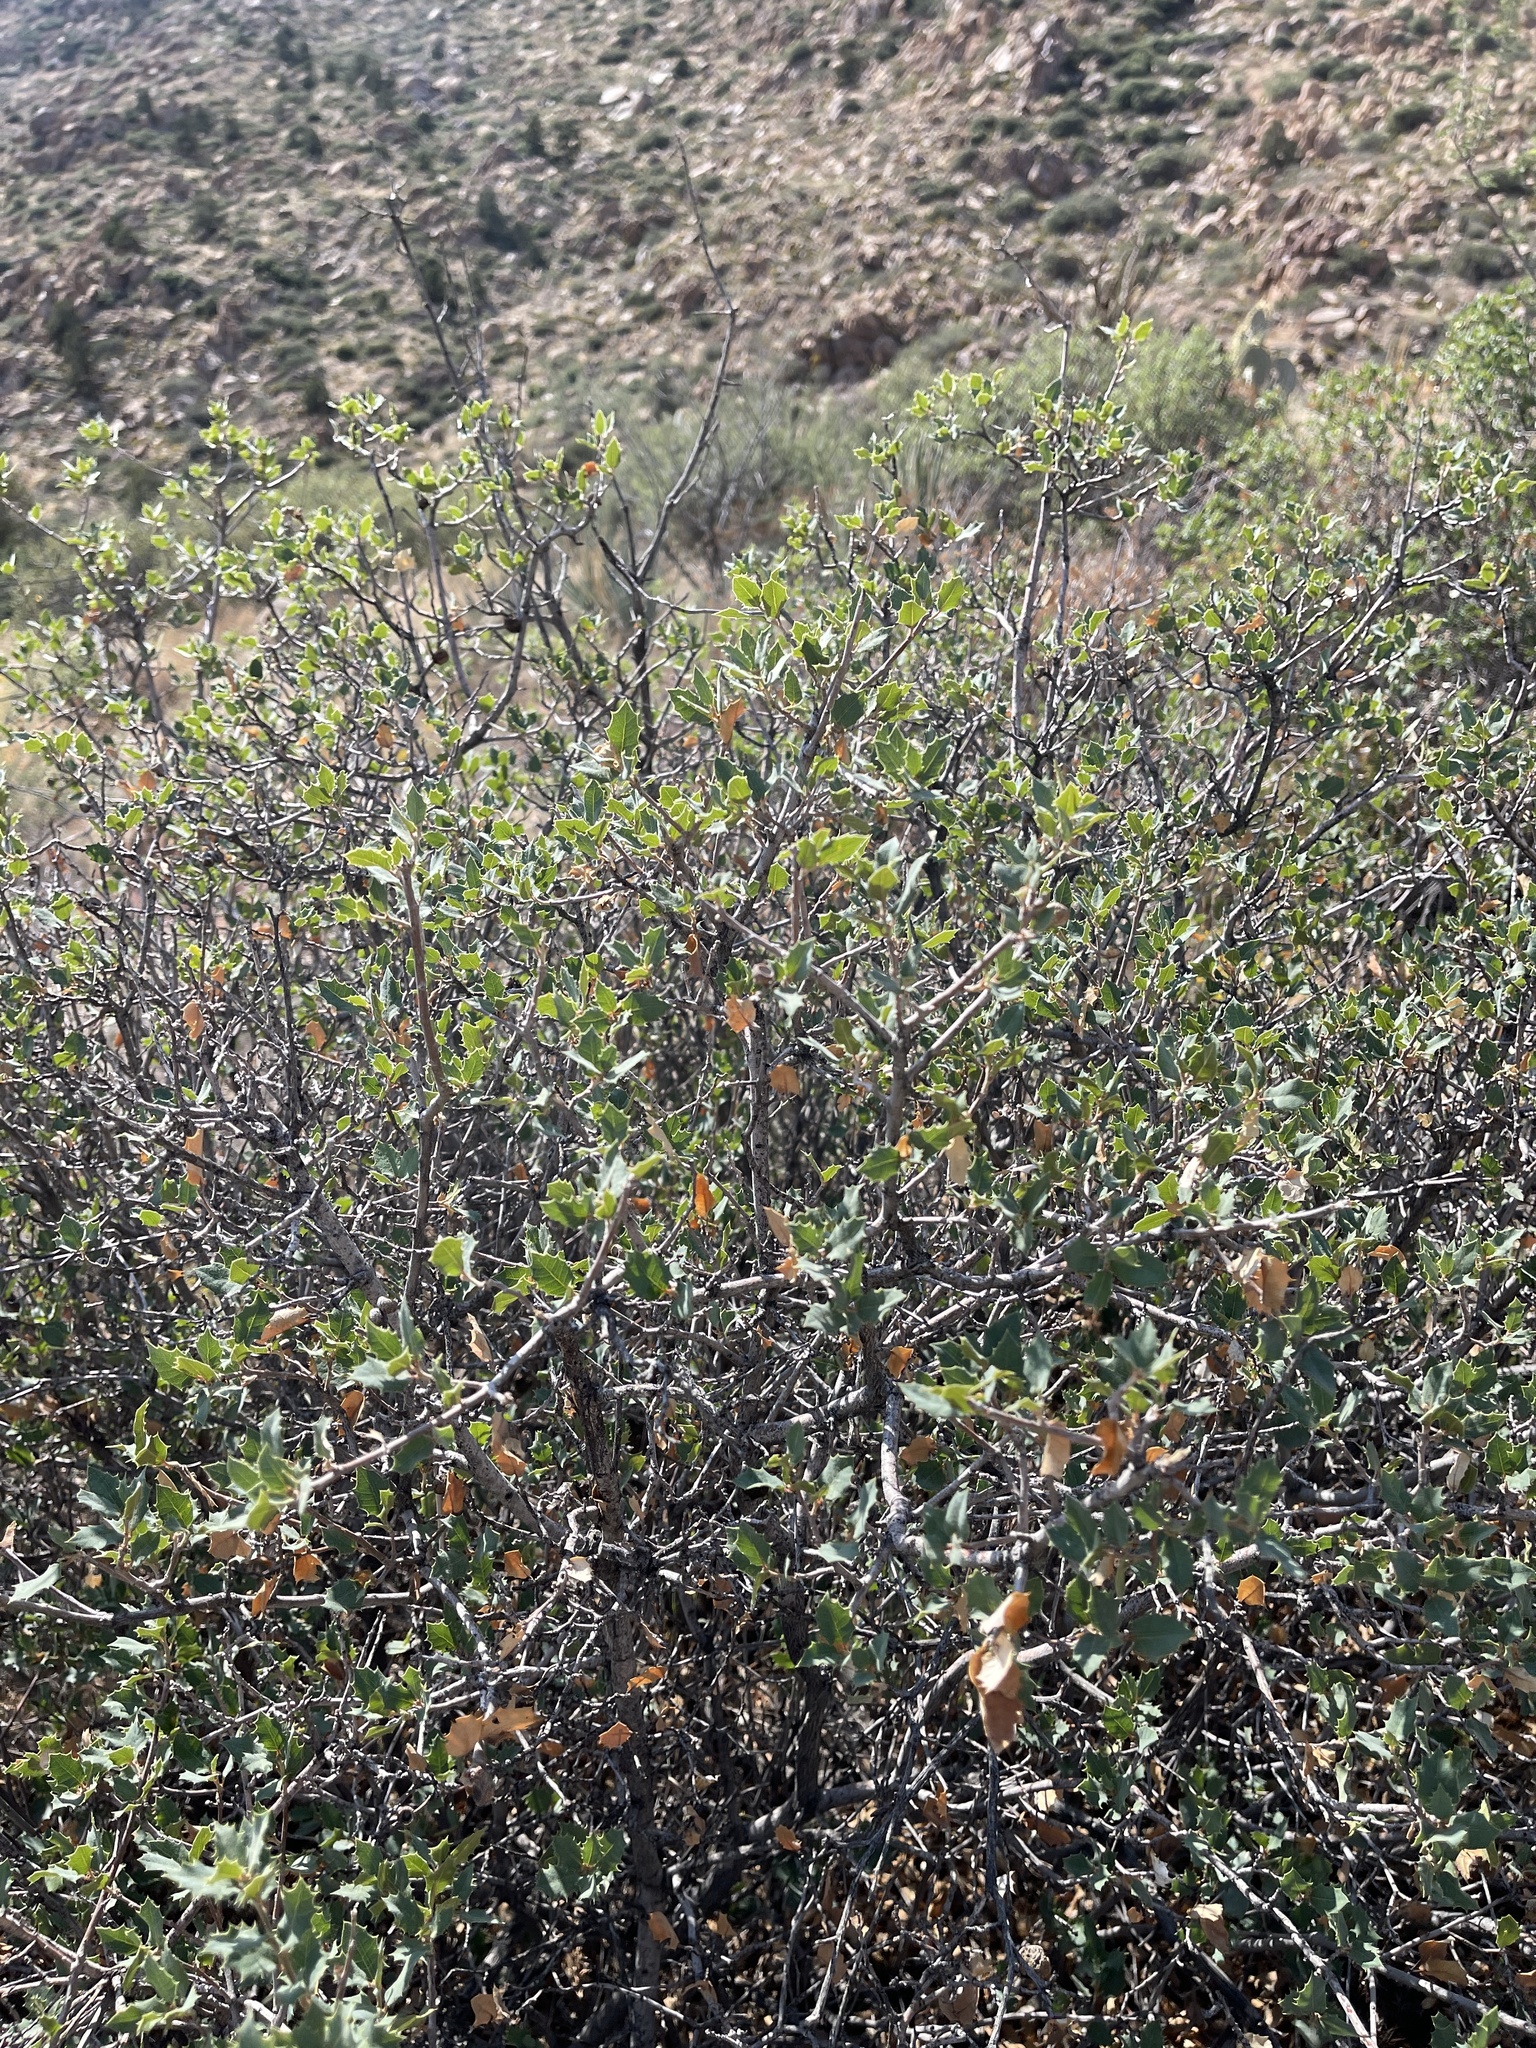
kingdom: Plantae
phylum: Tracheophyta
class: Magnoliopsida
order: Fagales
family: Fagaceae
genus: Quercus
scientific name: Quercus turbinella
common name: Sonoran scrub oak
